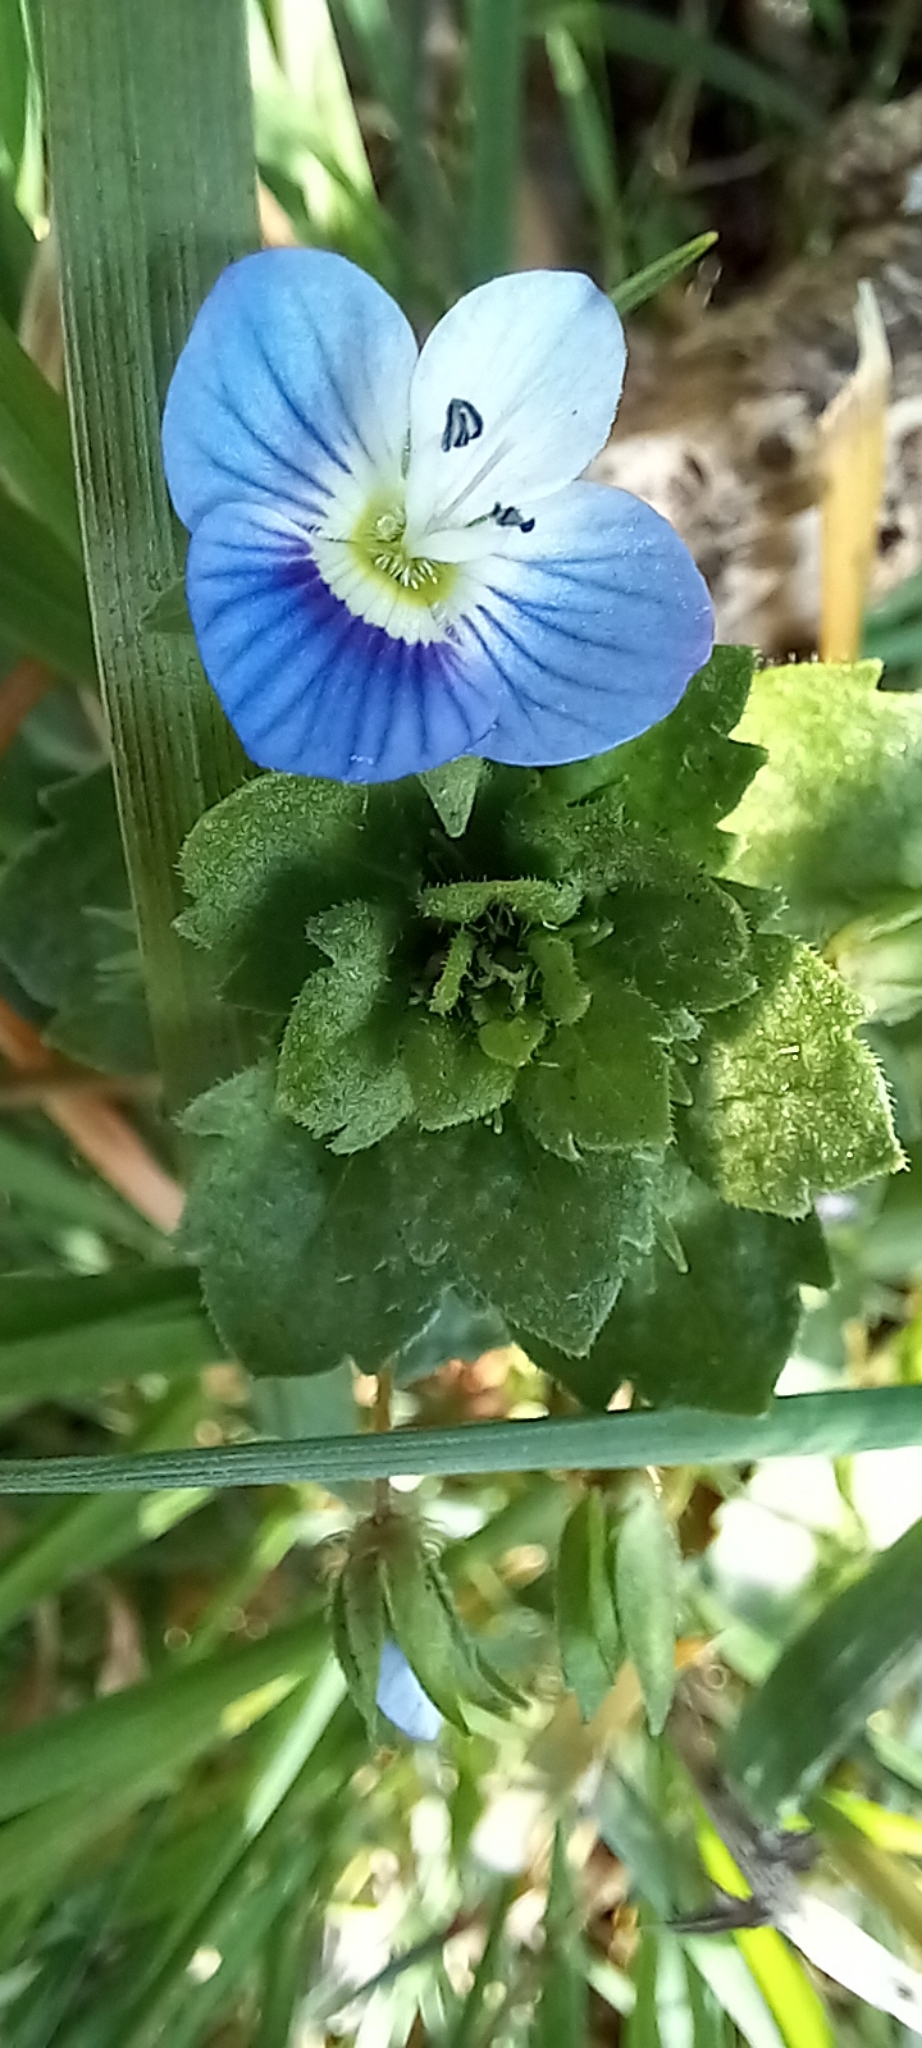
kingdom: Plantae
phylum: Tracheophyta
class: Magnoliopsida
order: Lamiales
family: Plantaginaceae
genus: Veronica
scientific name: Veronica persica
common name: Common field-speedwell
